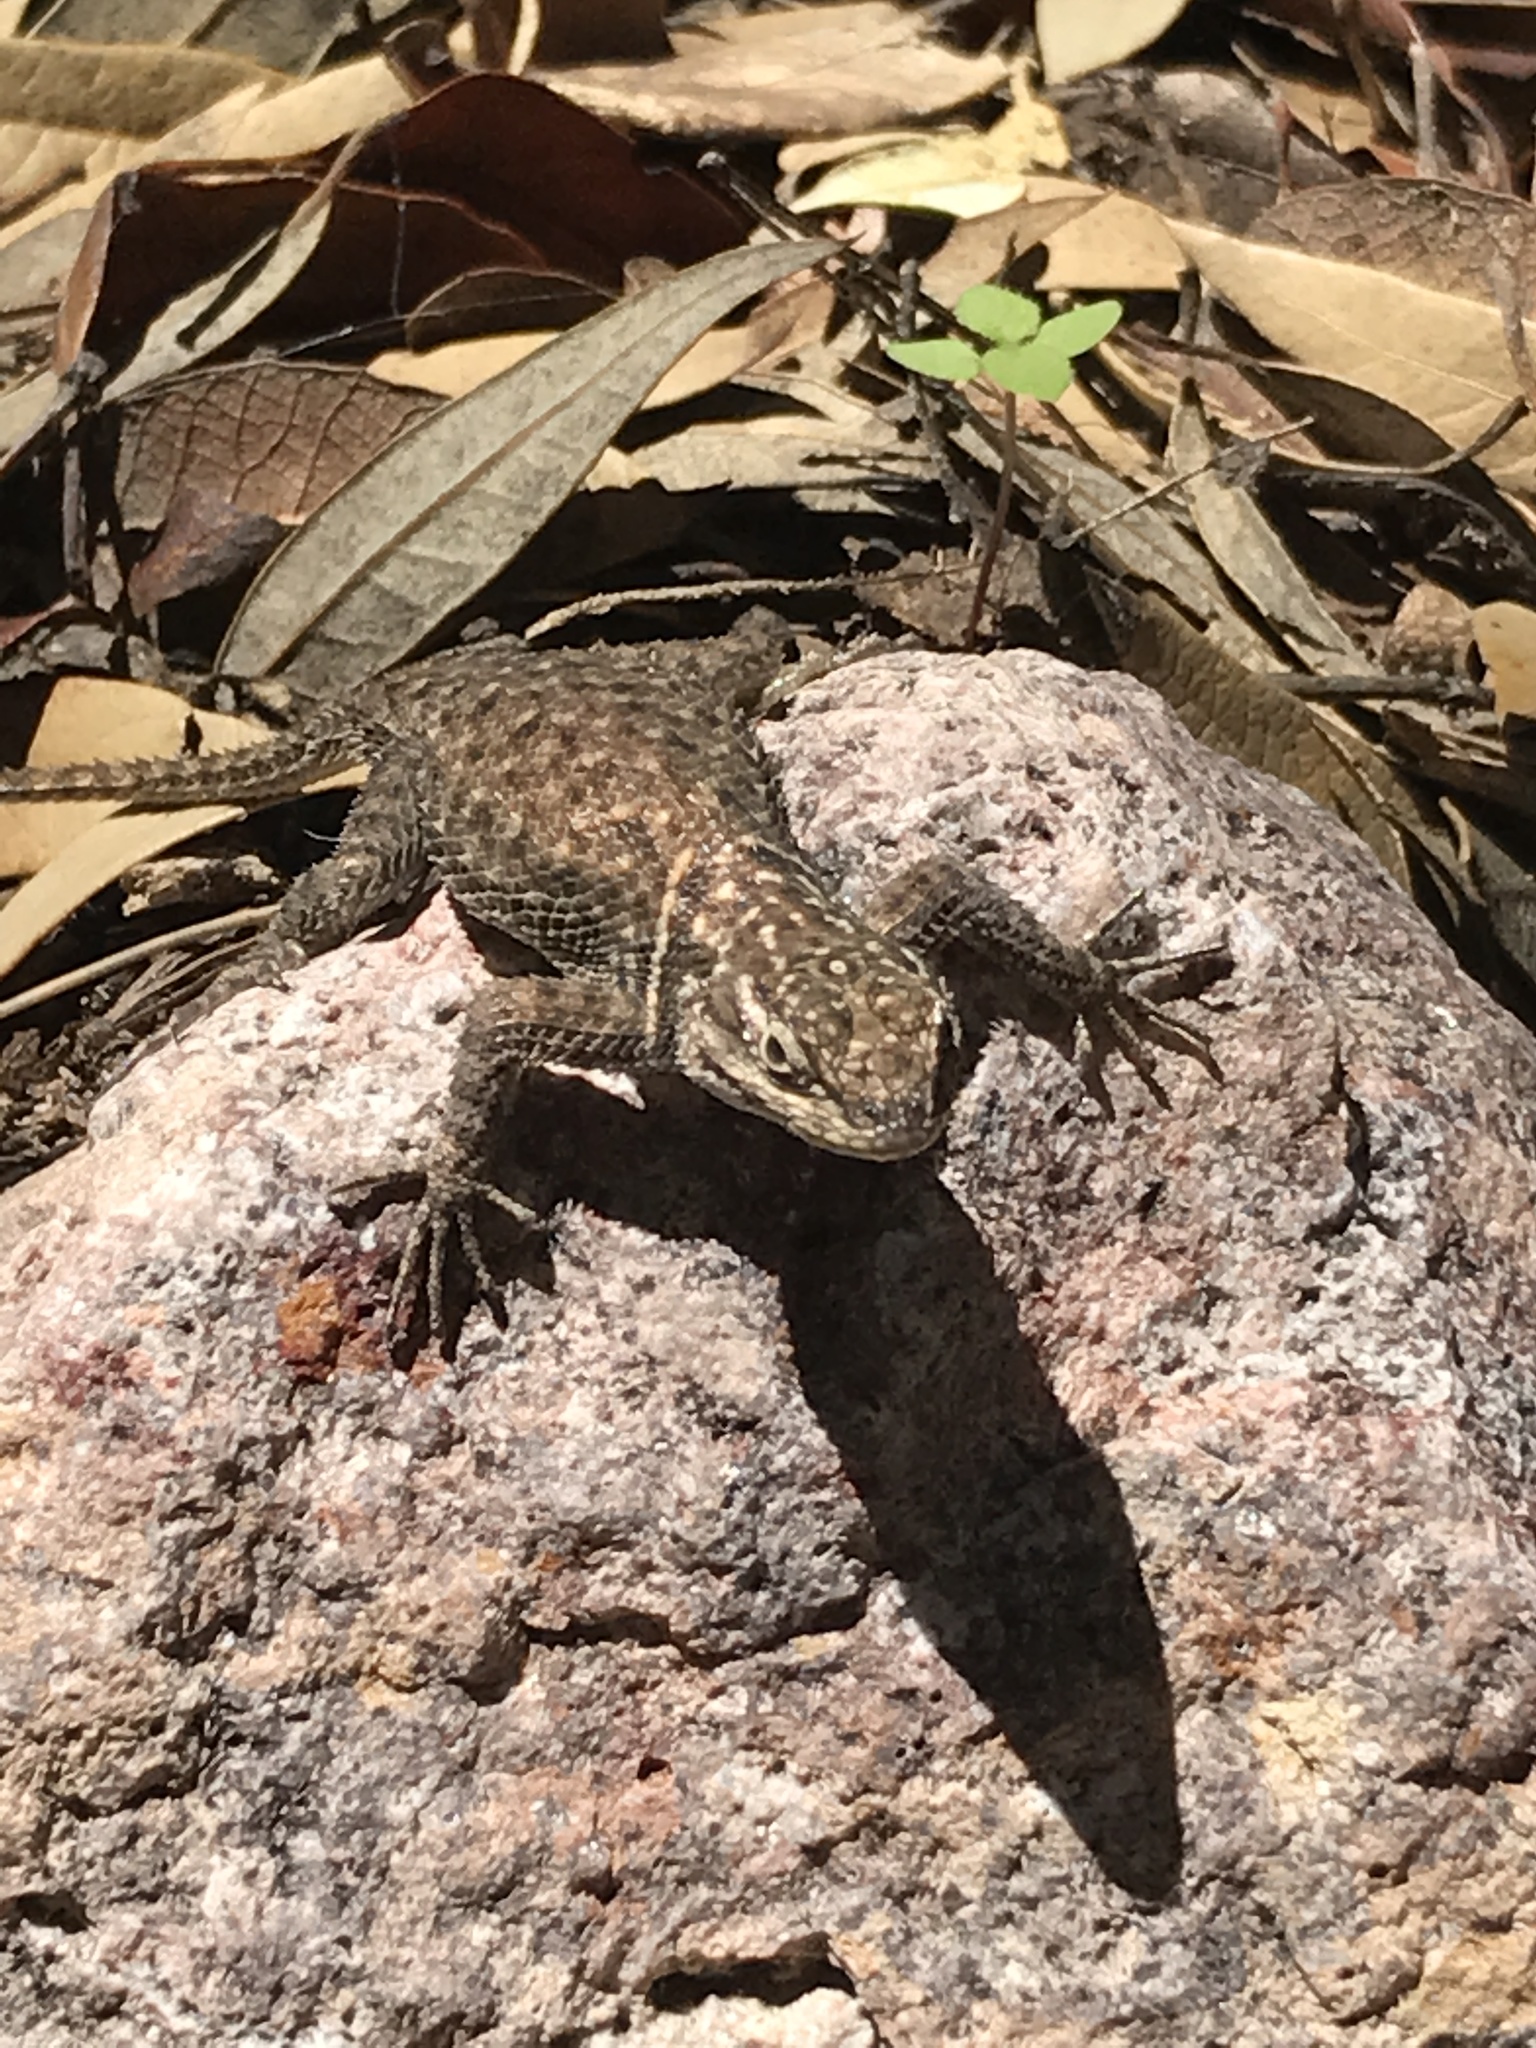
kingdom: Animalia
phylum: Chordata
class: Squamata
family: Phrynosomatidae
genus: Sceloporus
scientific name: Sceloporus jarrovii
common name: Yarrow's spiny lizard
